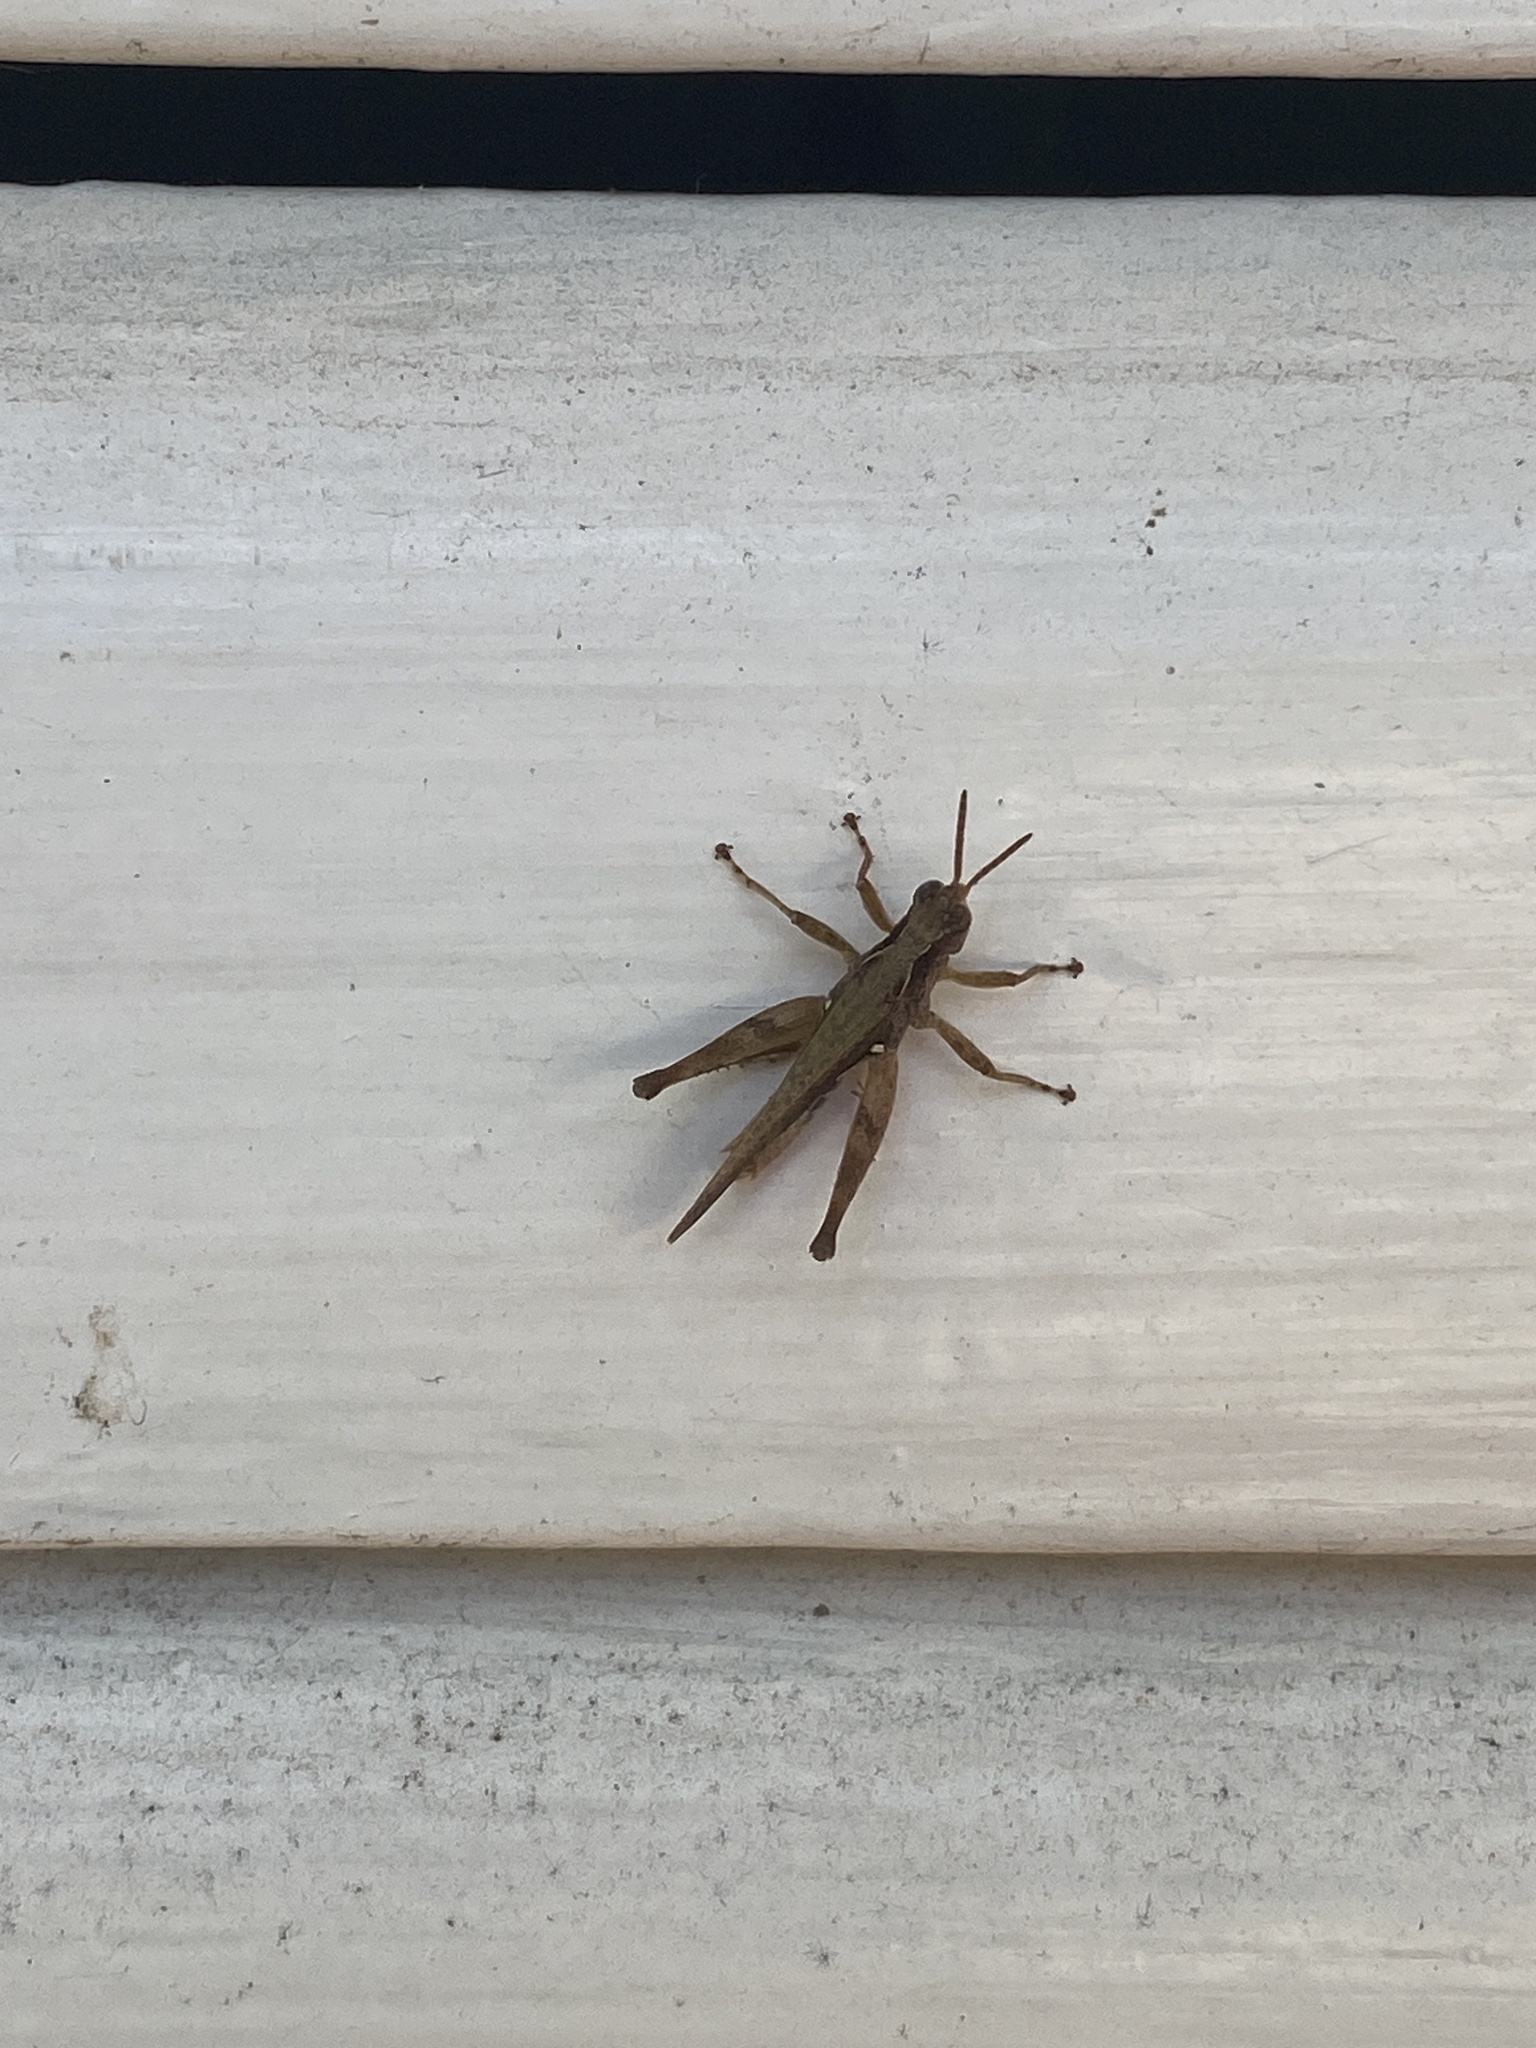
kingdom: Animalia
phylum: Arthropoda
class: Insecta
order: Orthoptera
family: Acrididae
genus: Orphulella
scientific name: Orphulella punctata
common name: Slant-faced grasshopper
